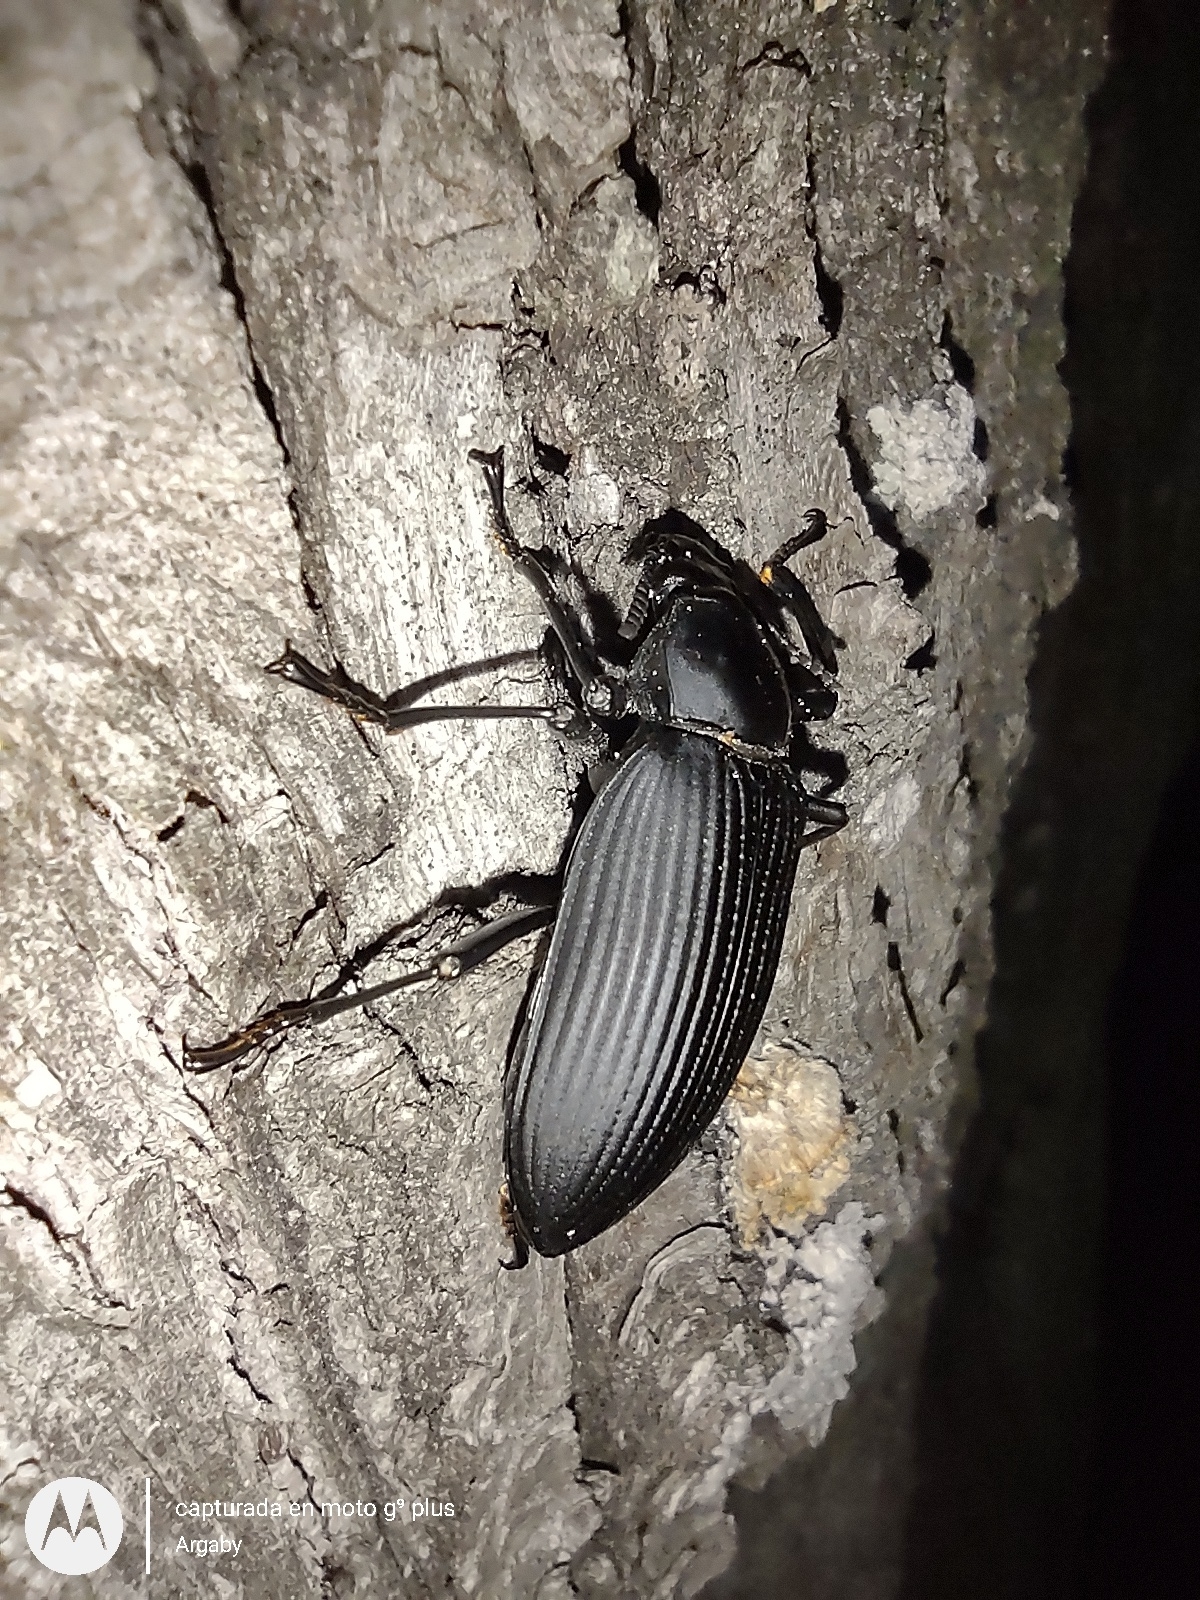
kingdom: Animalia
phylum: Arthropoda
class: Insecta
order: Coleoptera
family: Tenebrionidae
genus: Mylaris
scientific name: Mylaris gigas
